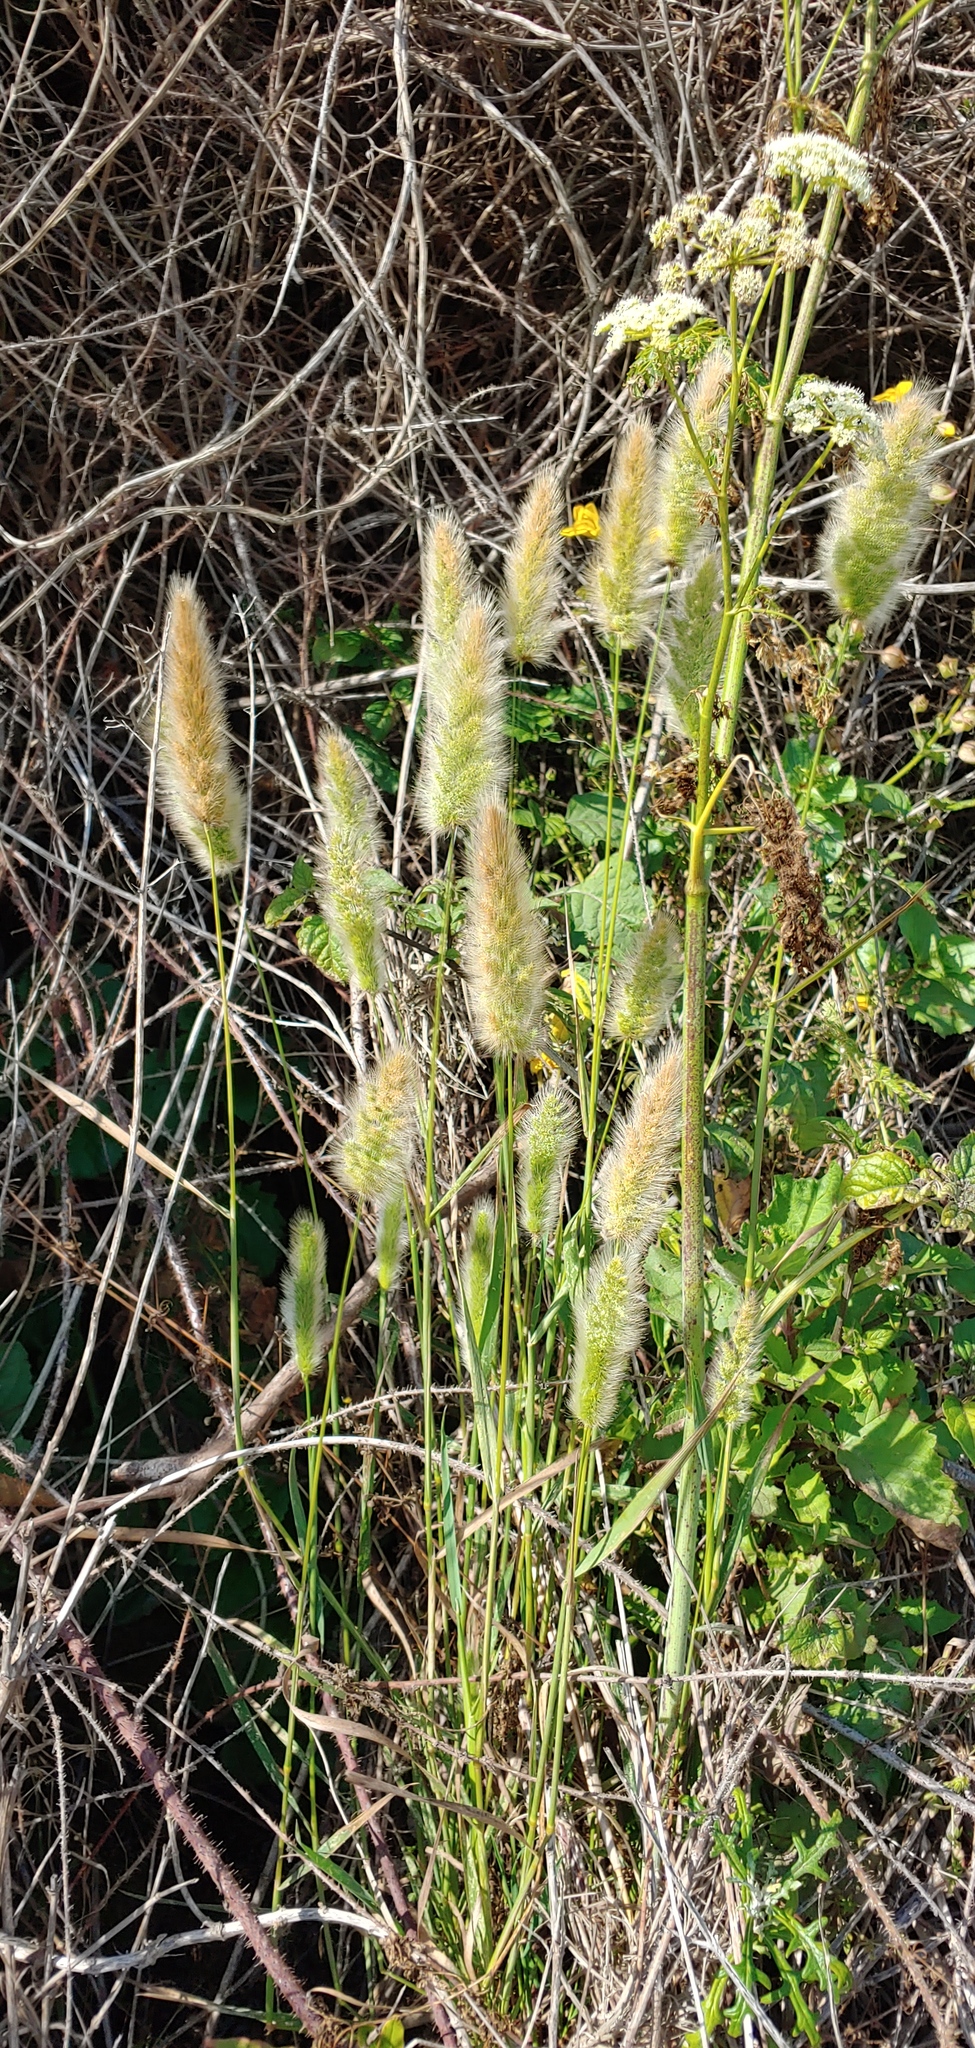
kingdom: Plantae
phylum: Tracheophyta
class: Liliopsida
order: Poales
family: Poaceae
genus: Polypogon
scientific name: Polypogon monspeliensis
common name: Annual rabbitsfoot grass
